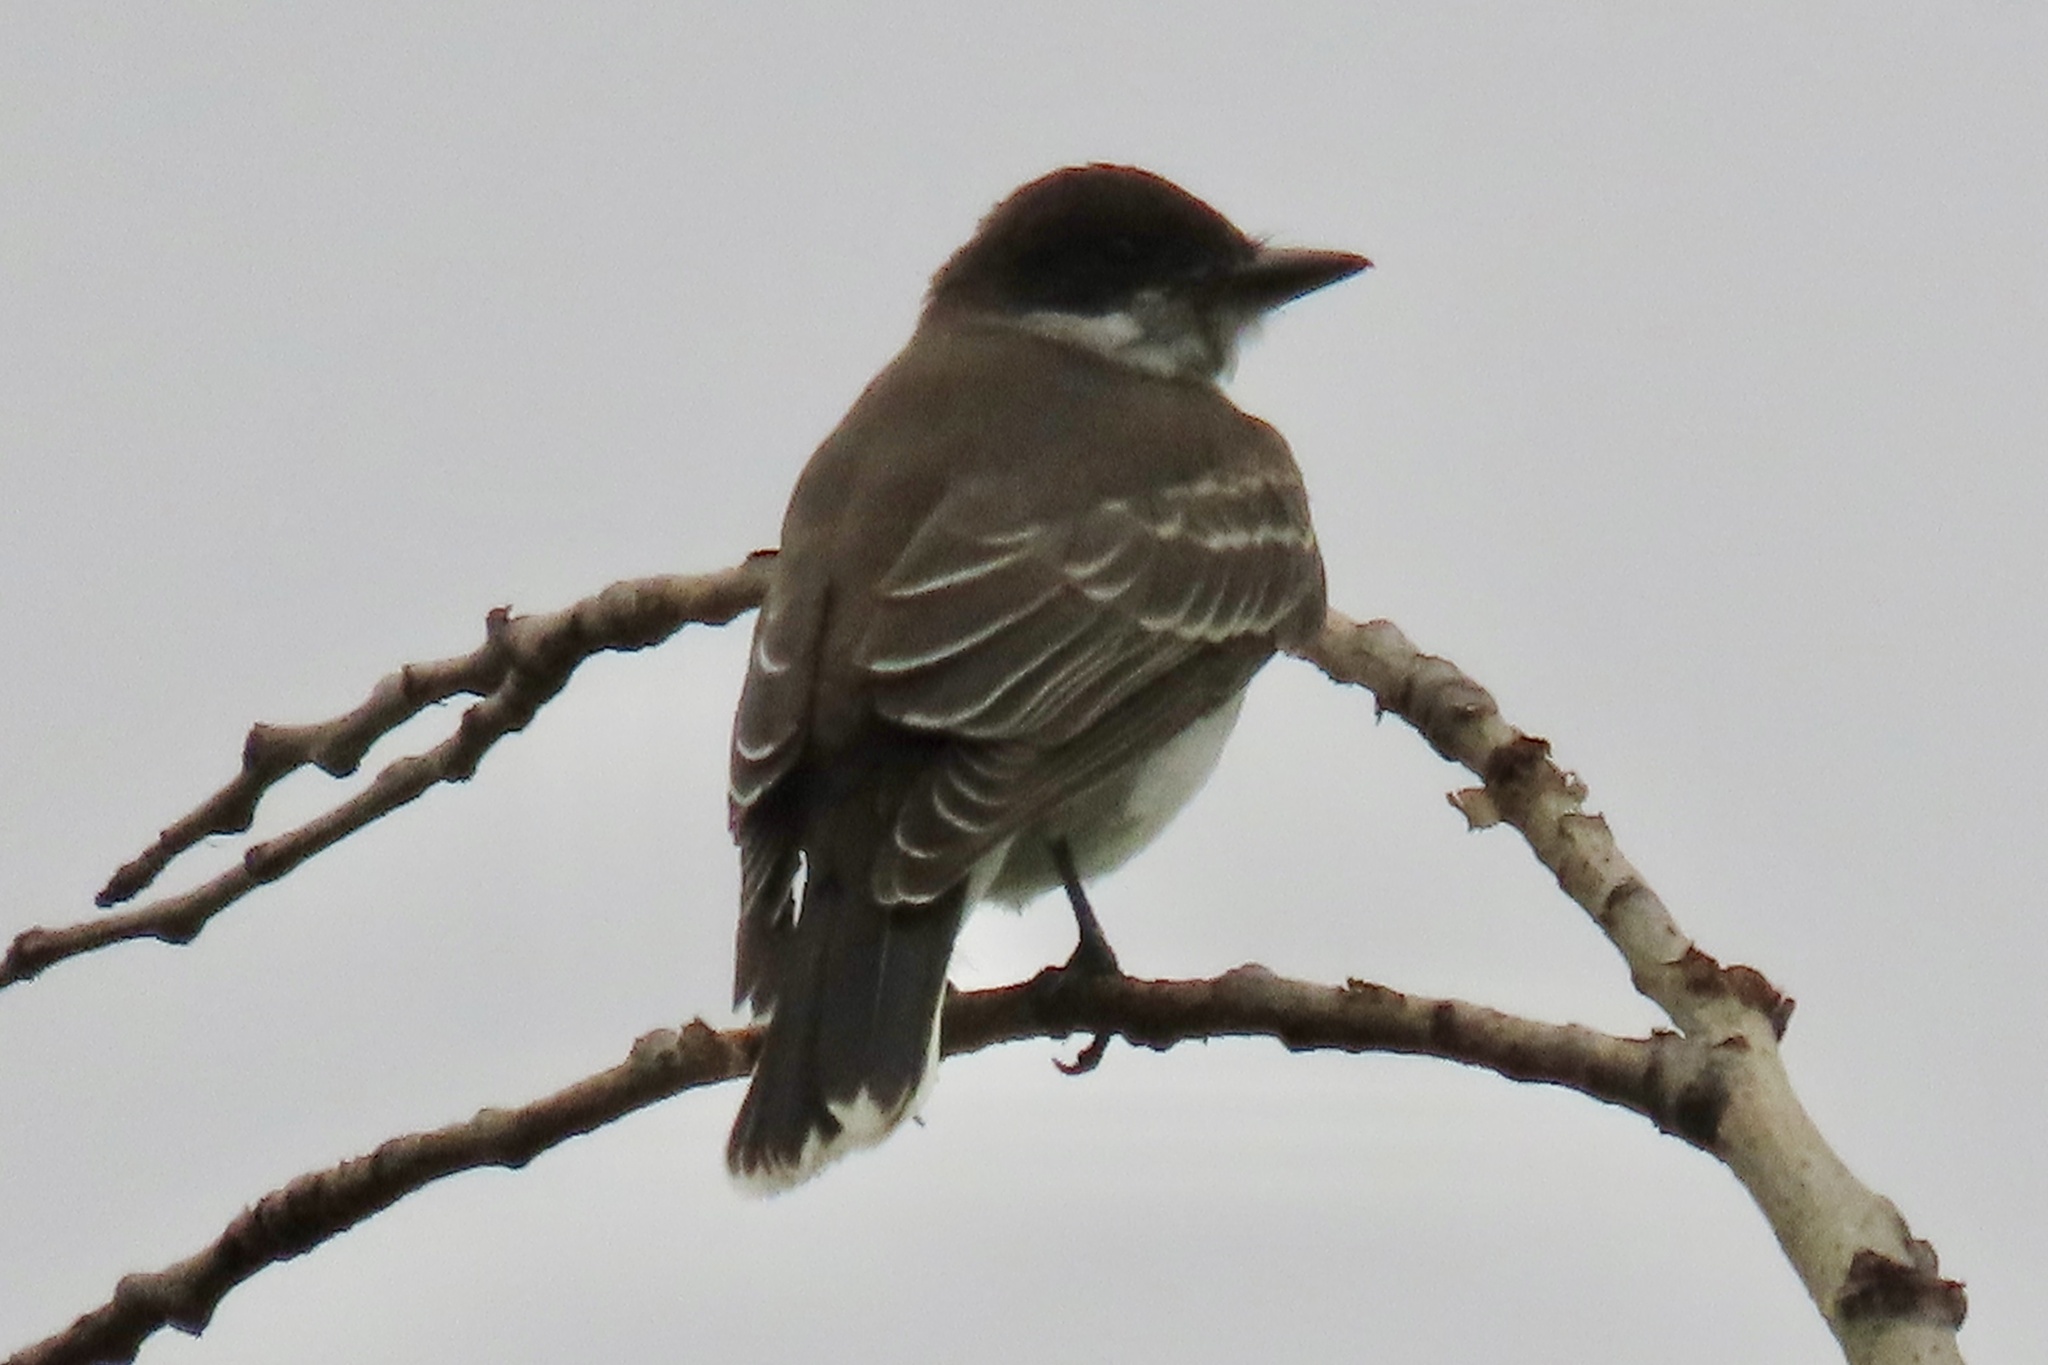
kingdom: Animalia
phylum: Chordata
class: Aves
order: Passeriformes
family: Tyrannidae
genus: Tyrannus
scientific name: Tyrannus tyrannus
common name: Eastern kingbird
